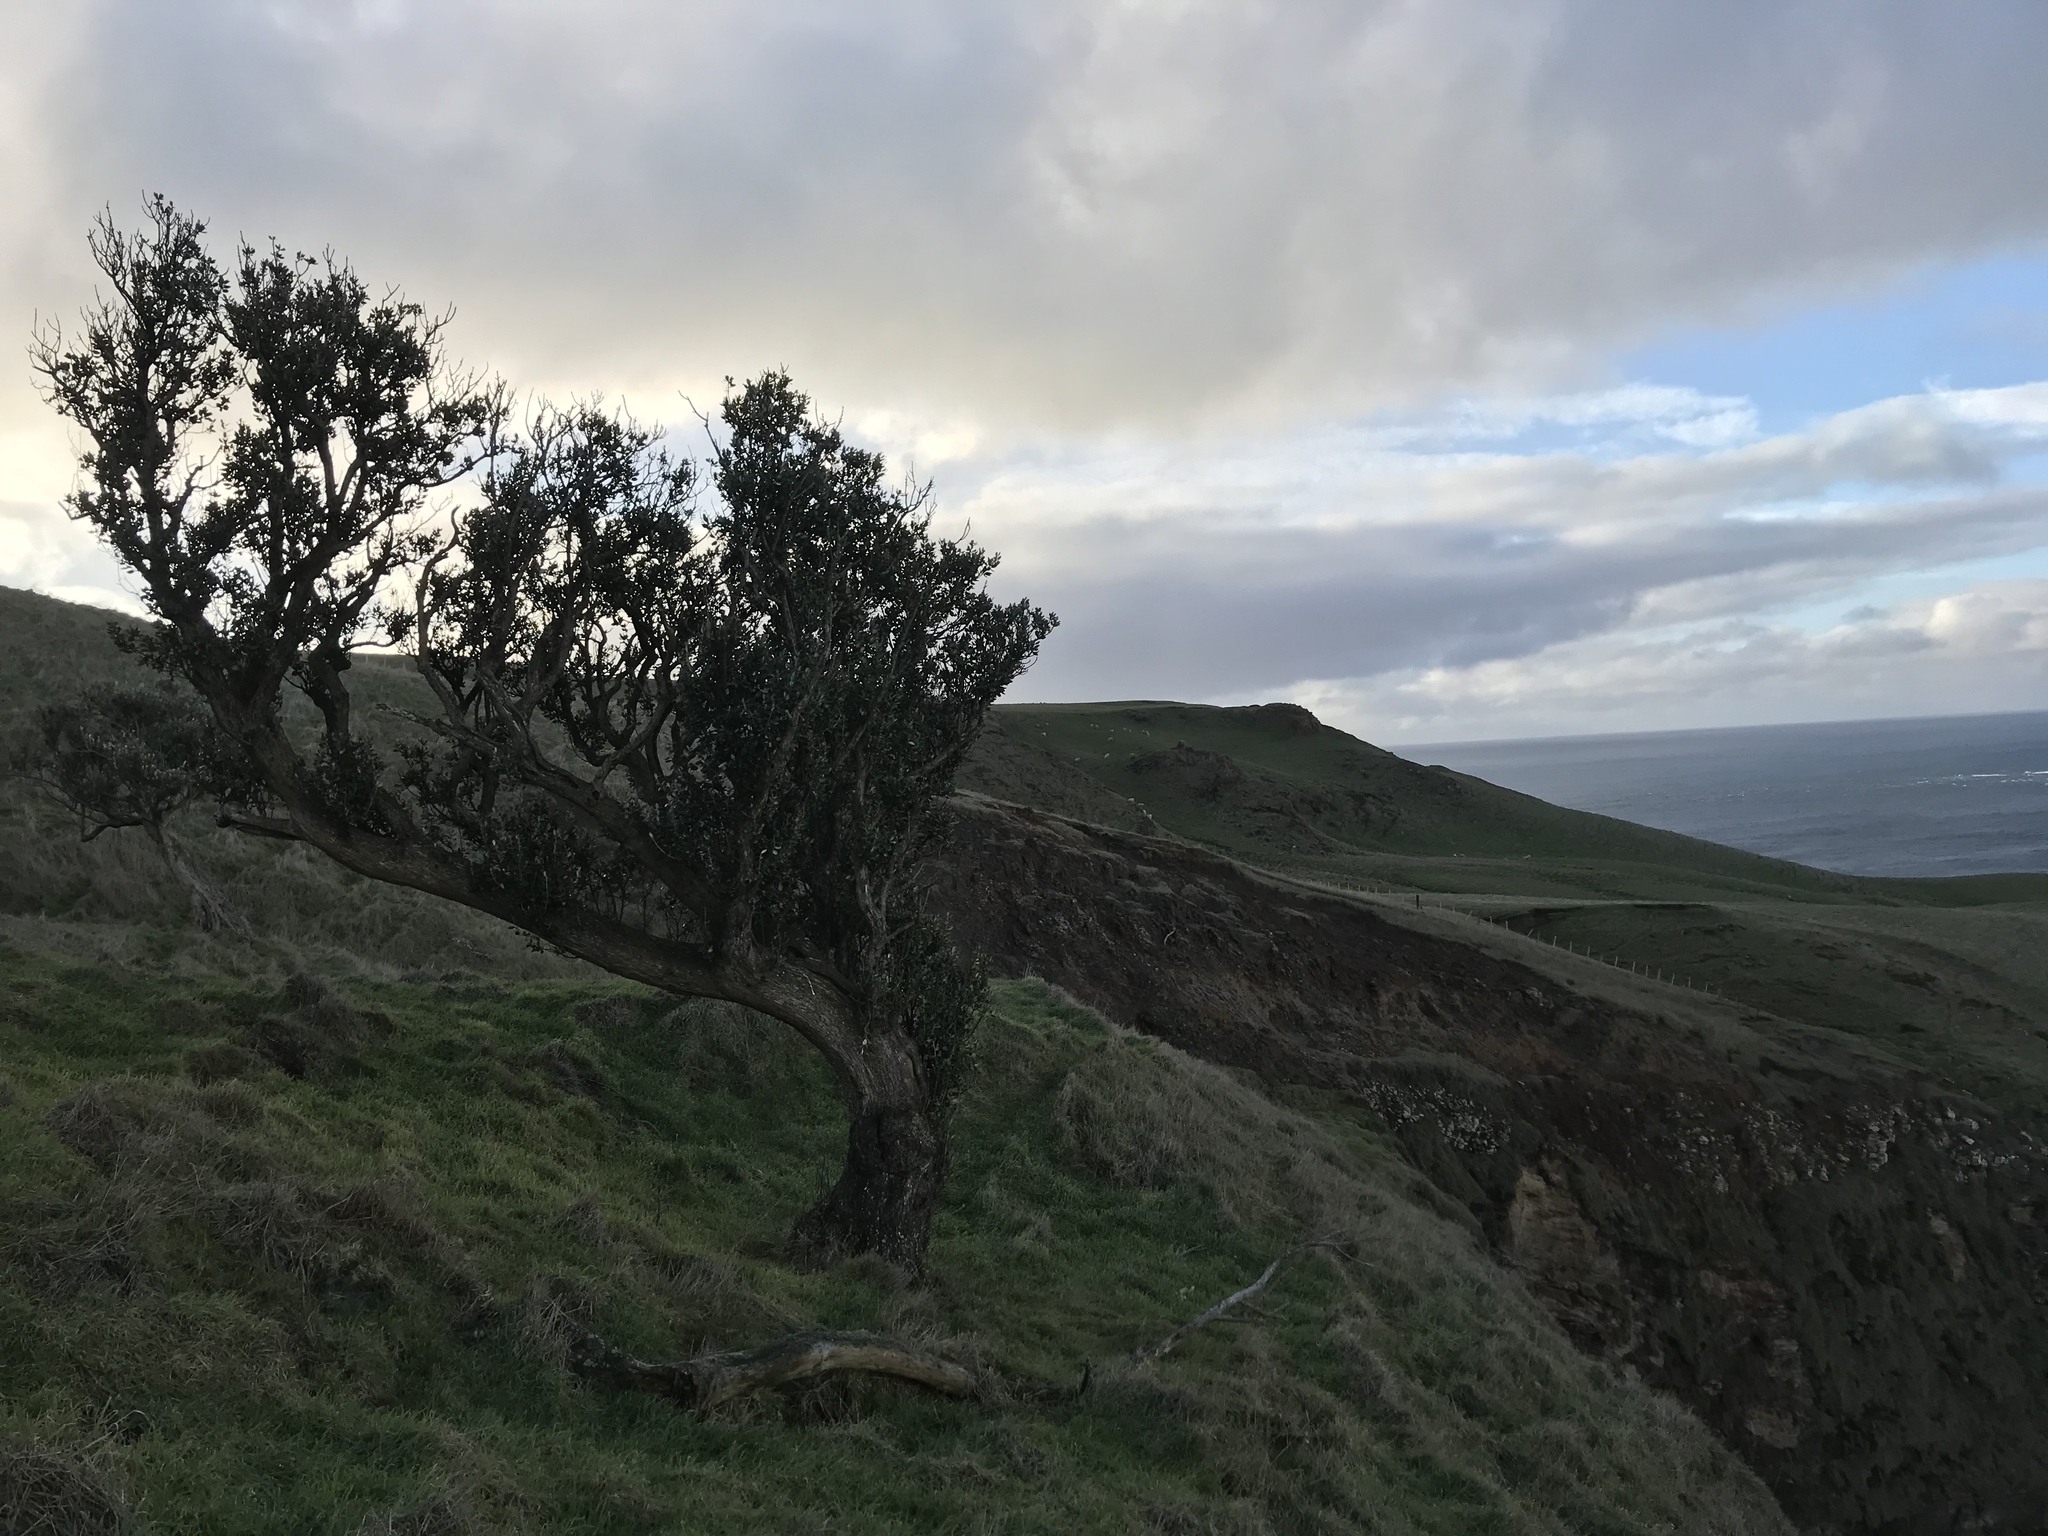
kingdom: Plantae
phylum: Tracheophyta
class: Magnoliopsida
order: Asterales
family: Asteraceae
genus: Olearia
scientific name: Olearia traversiorum
